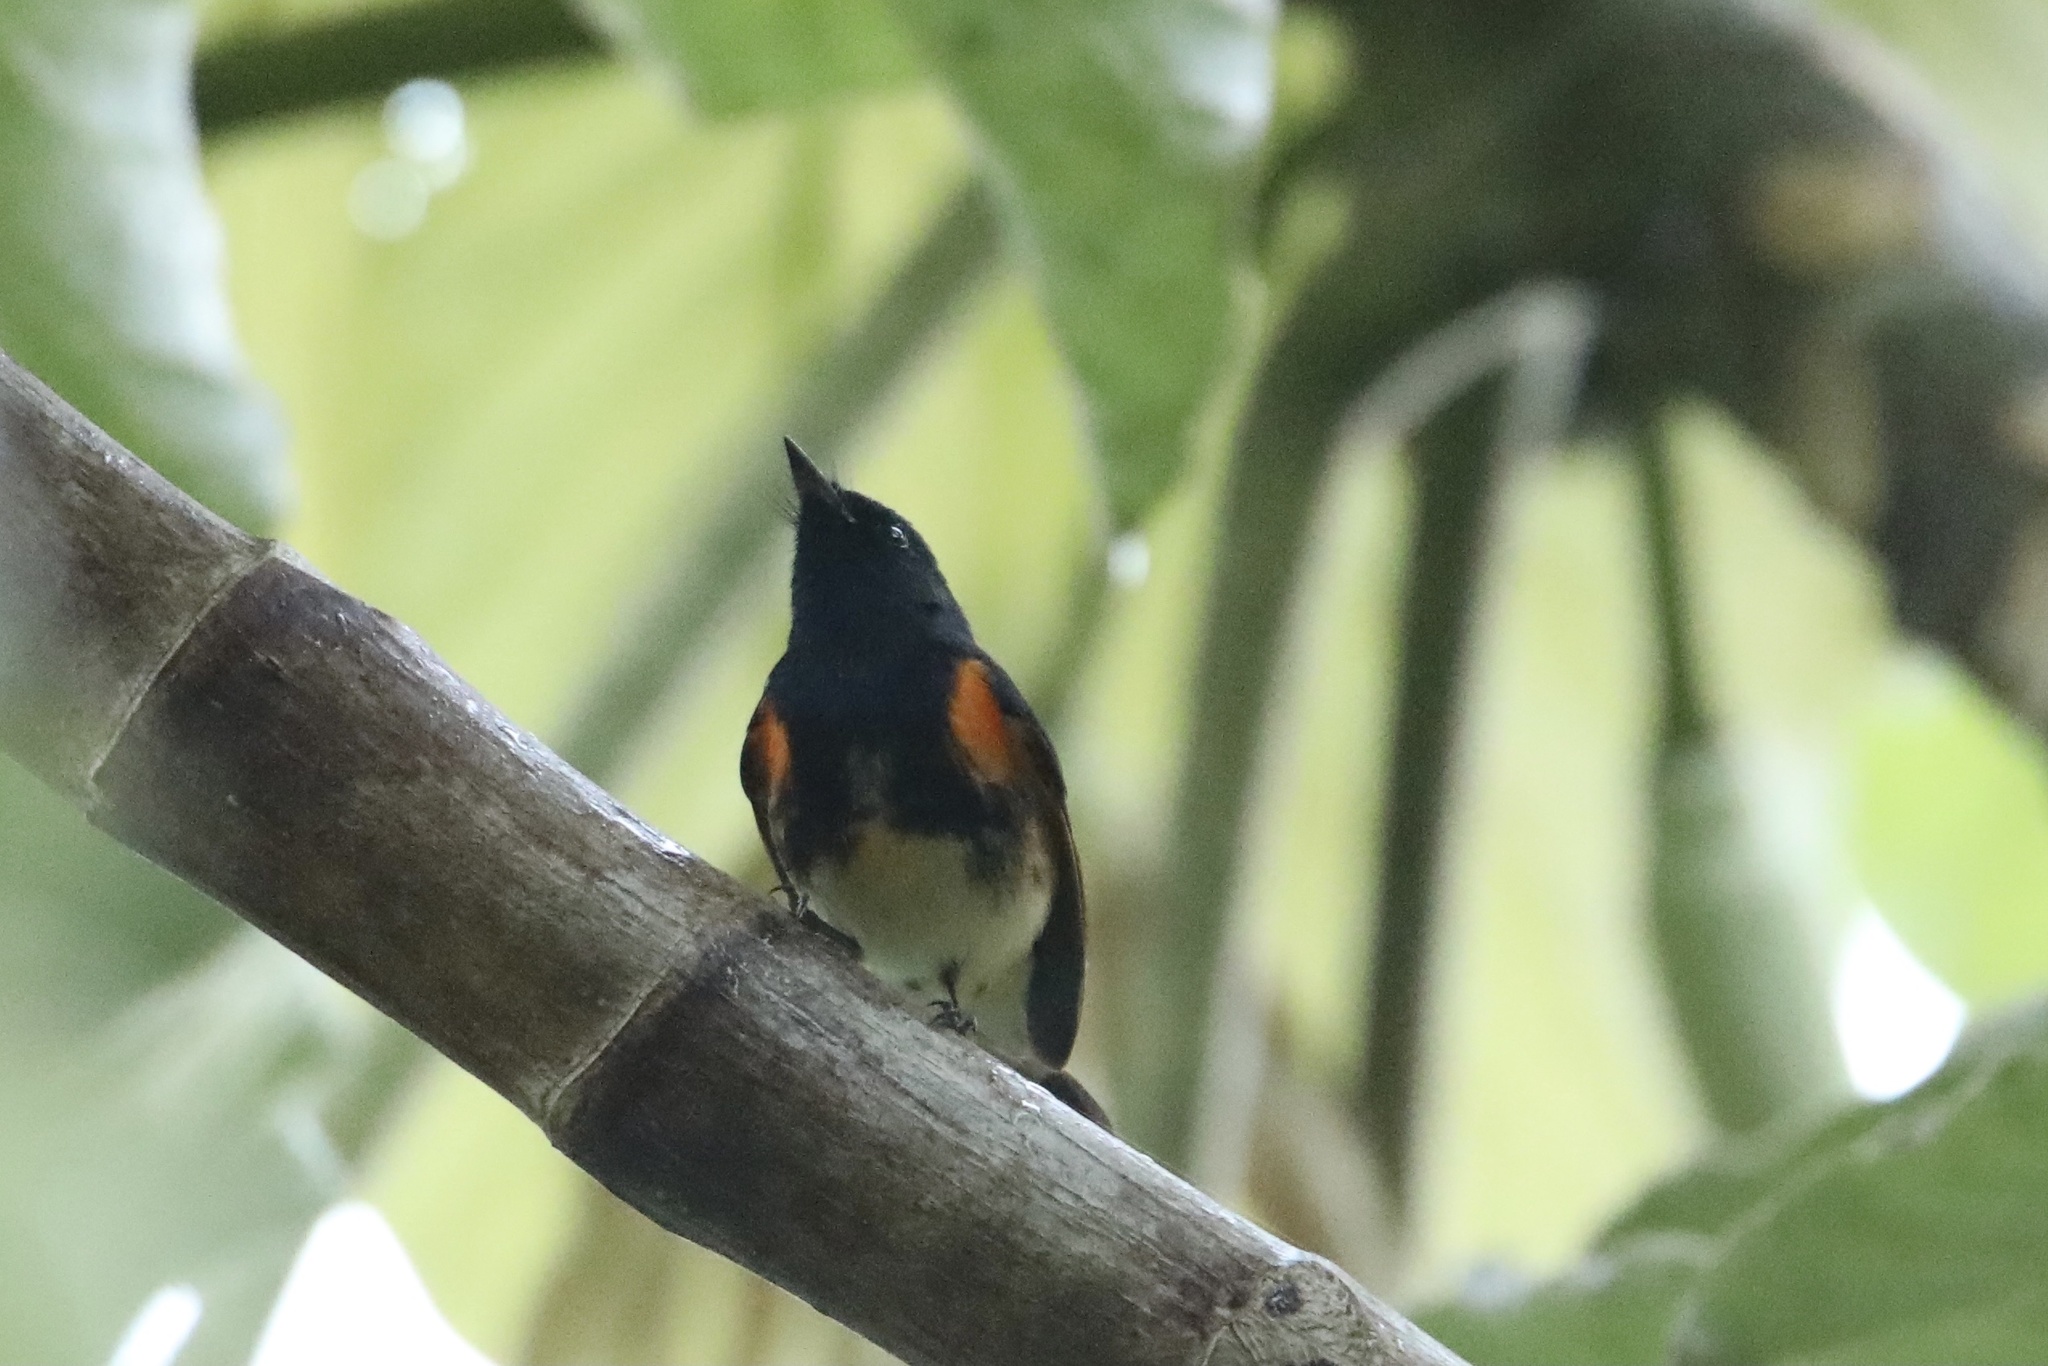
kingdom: Animalia
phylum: Chordata
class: Aves
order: Passeriformes
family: Parulidae
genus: Setophaga
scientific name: Setophaga ruticilla
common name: American redstart
